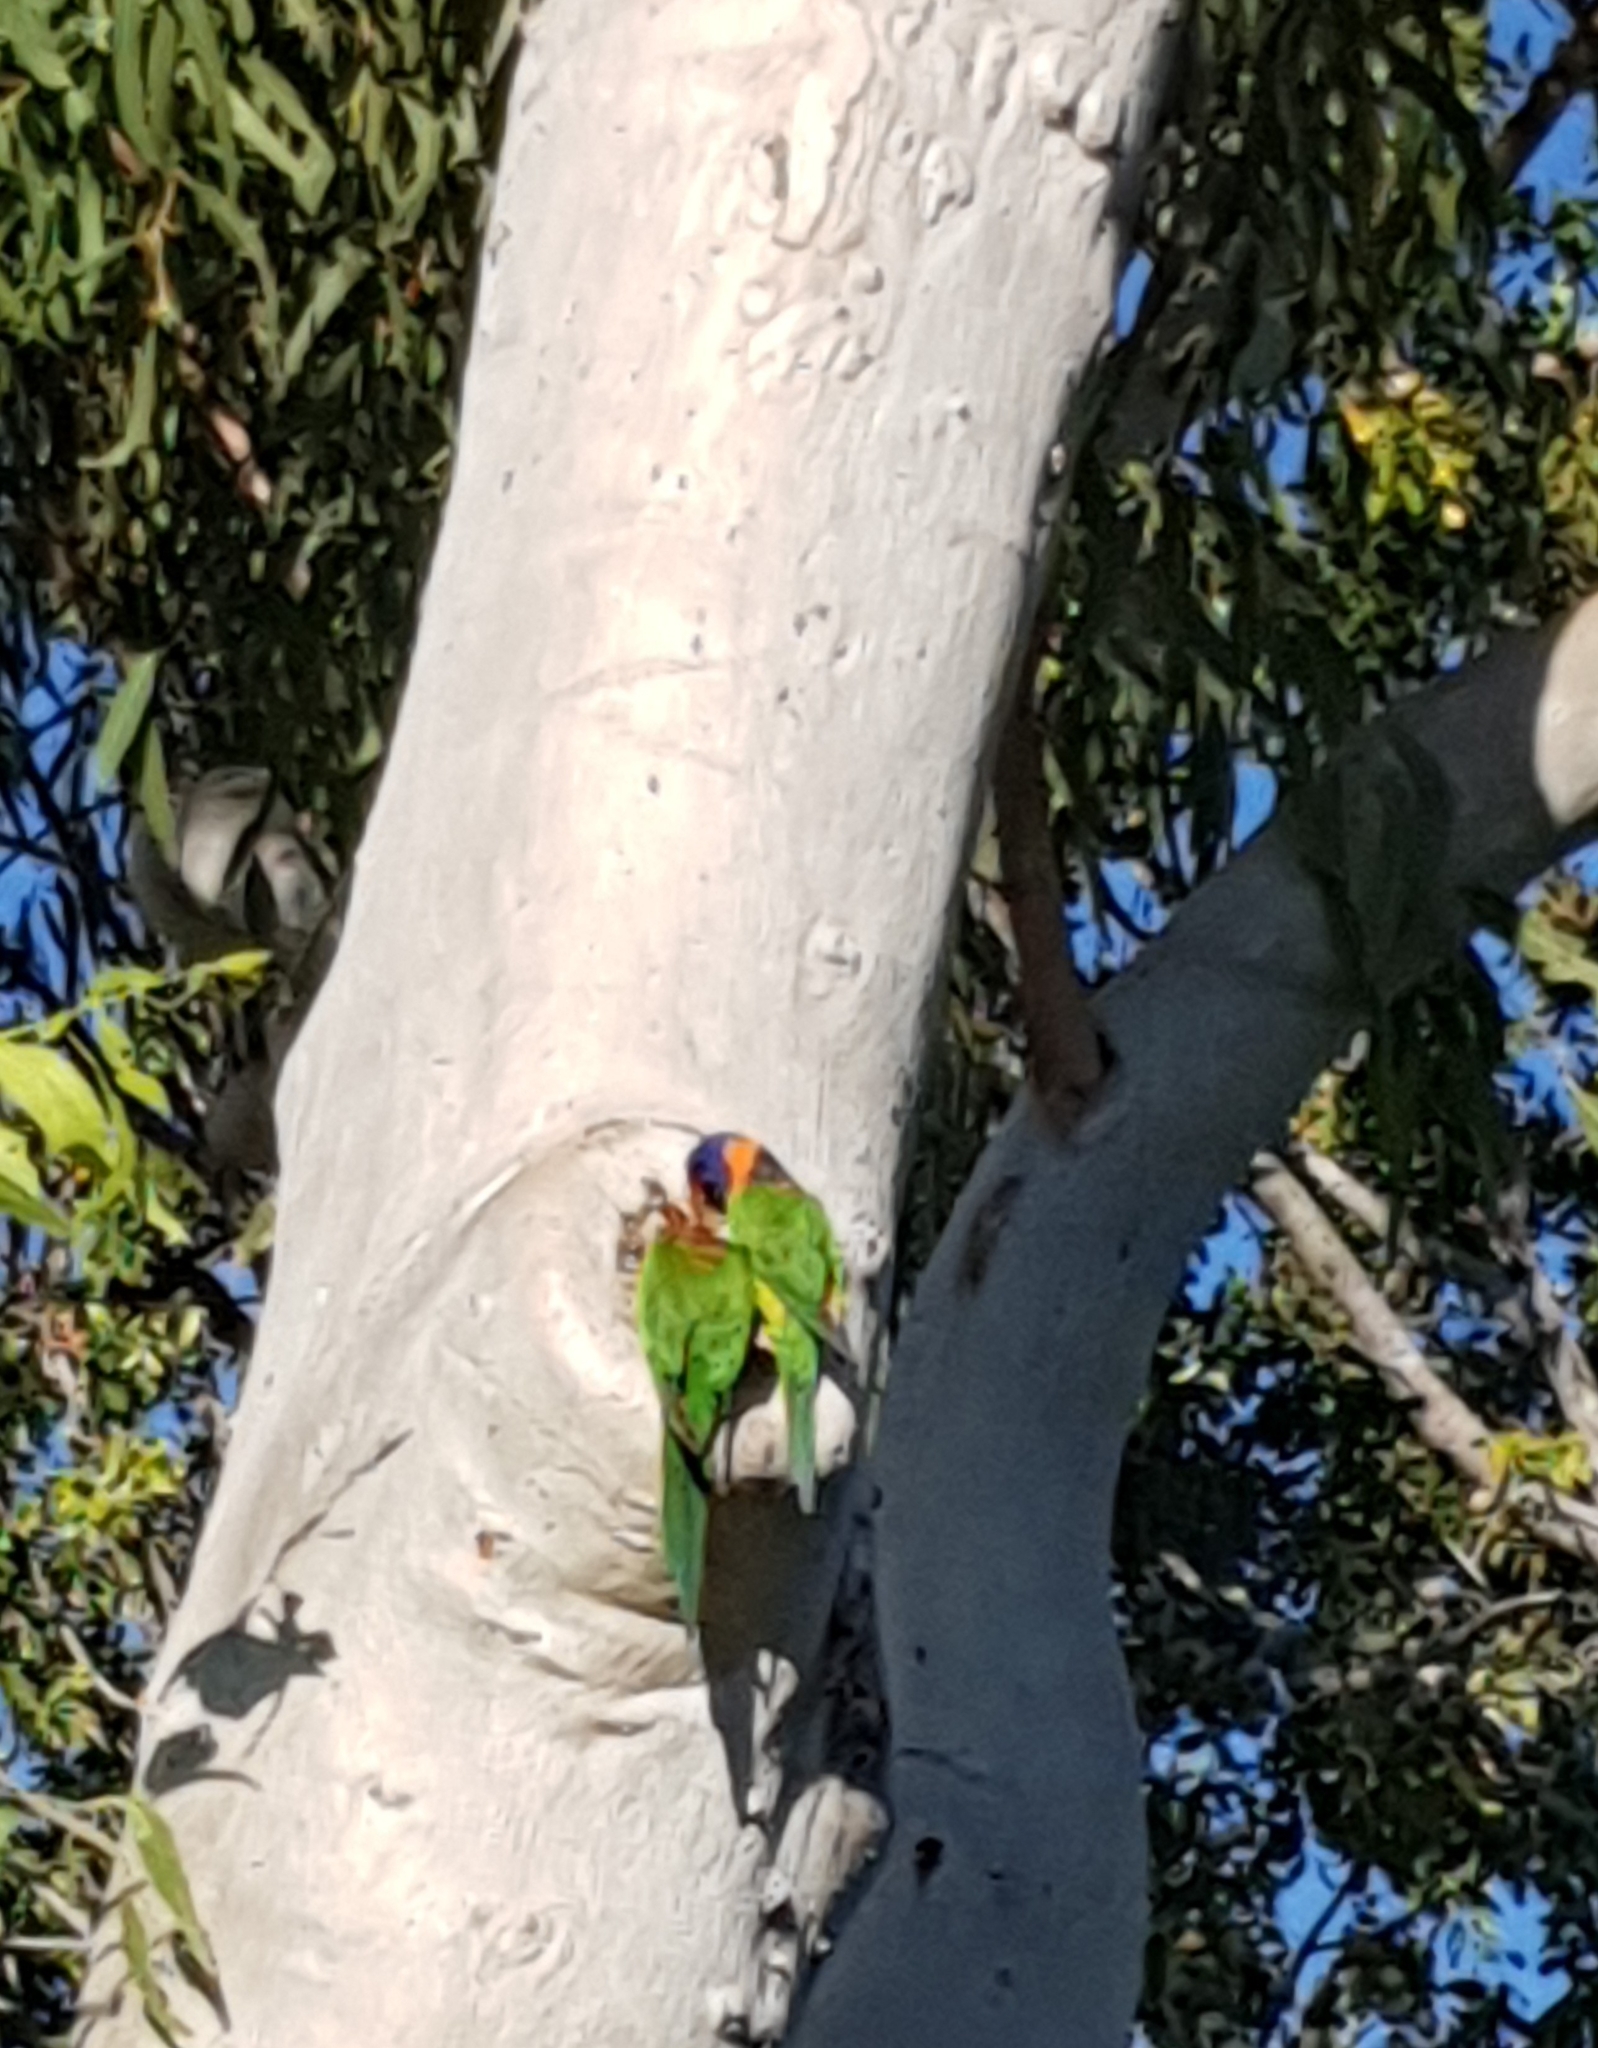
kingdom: Animalia
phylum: Chordata
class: Aves
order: Psittaciformes
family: Psittacidae
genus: Trichoglossus
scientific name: Trichoglossus rubritorquis
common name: Red-collared lorikeet
